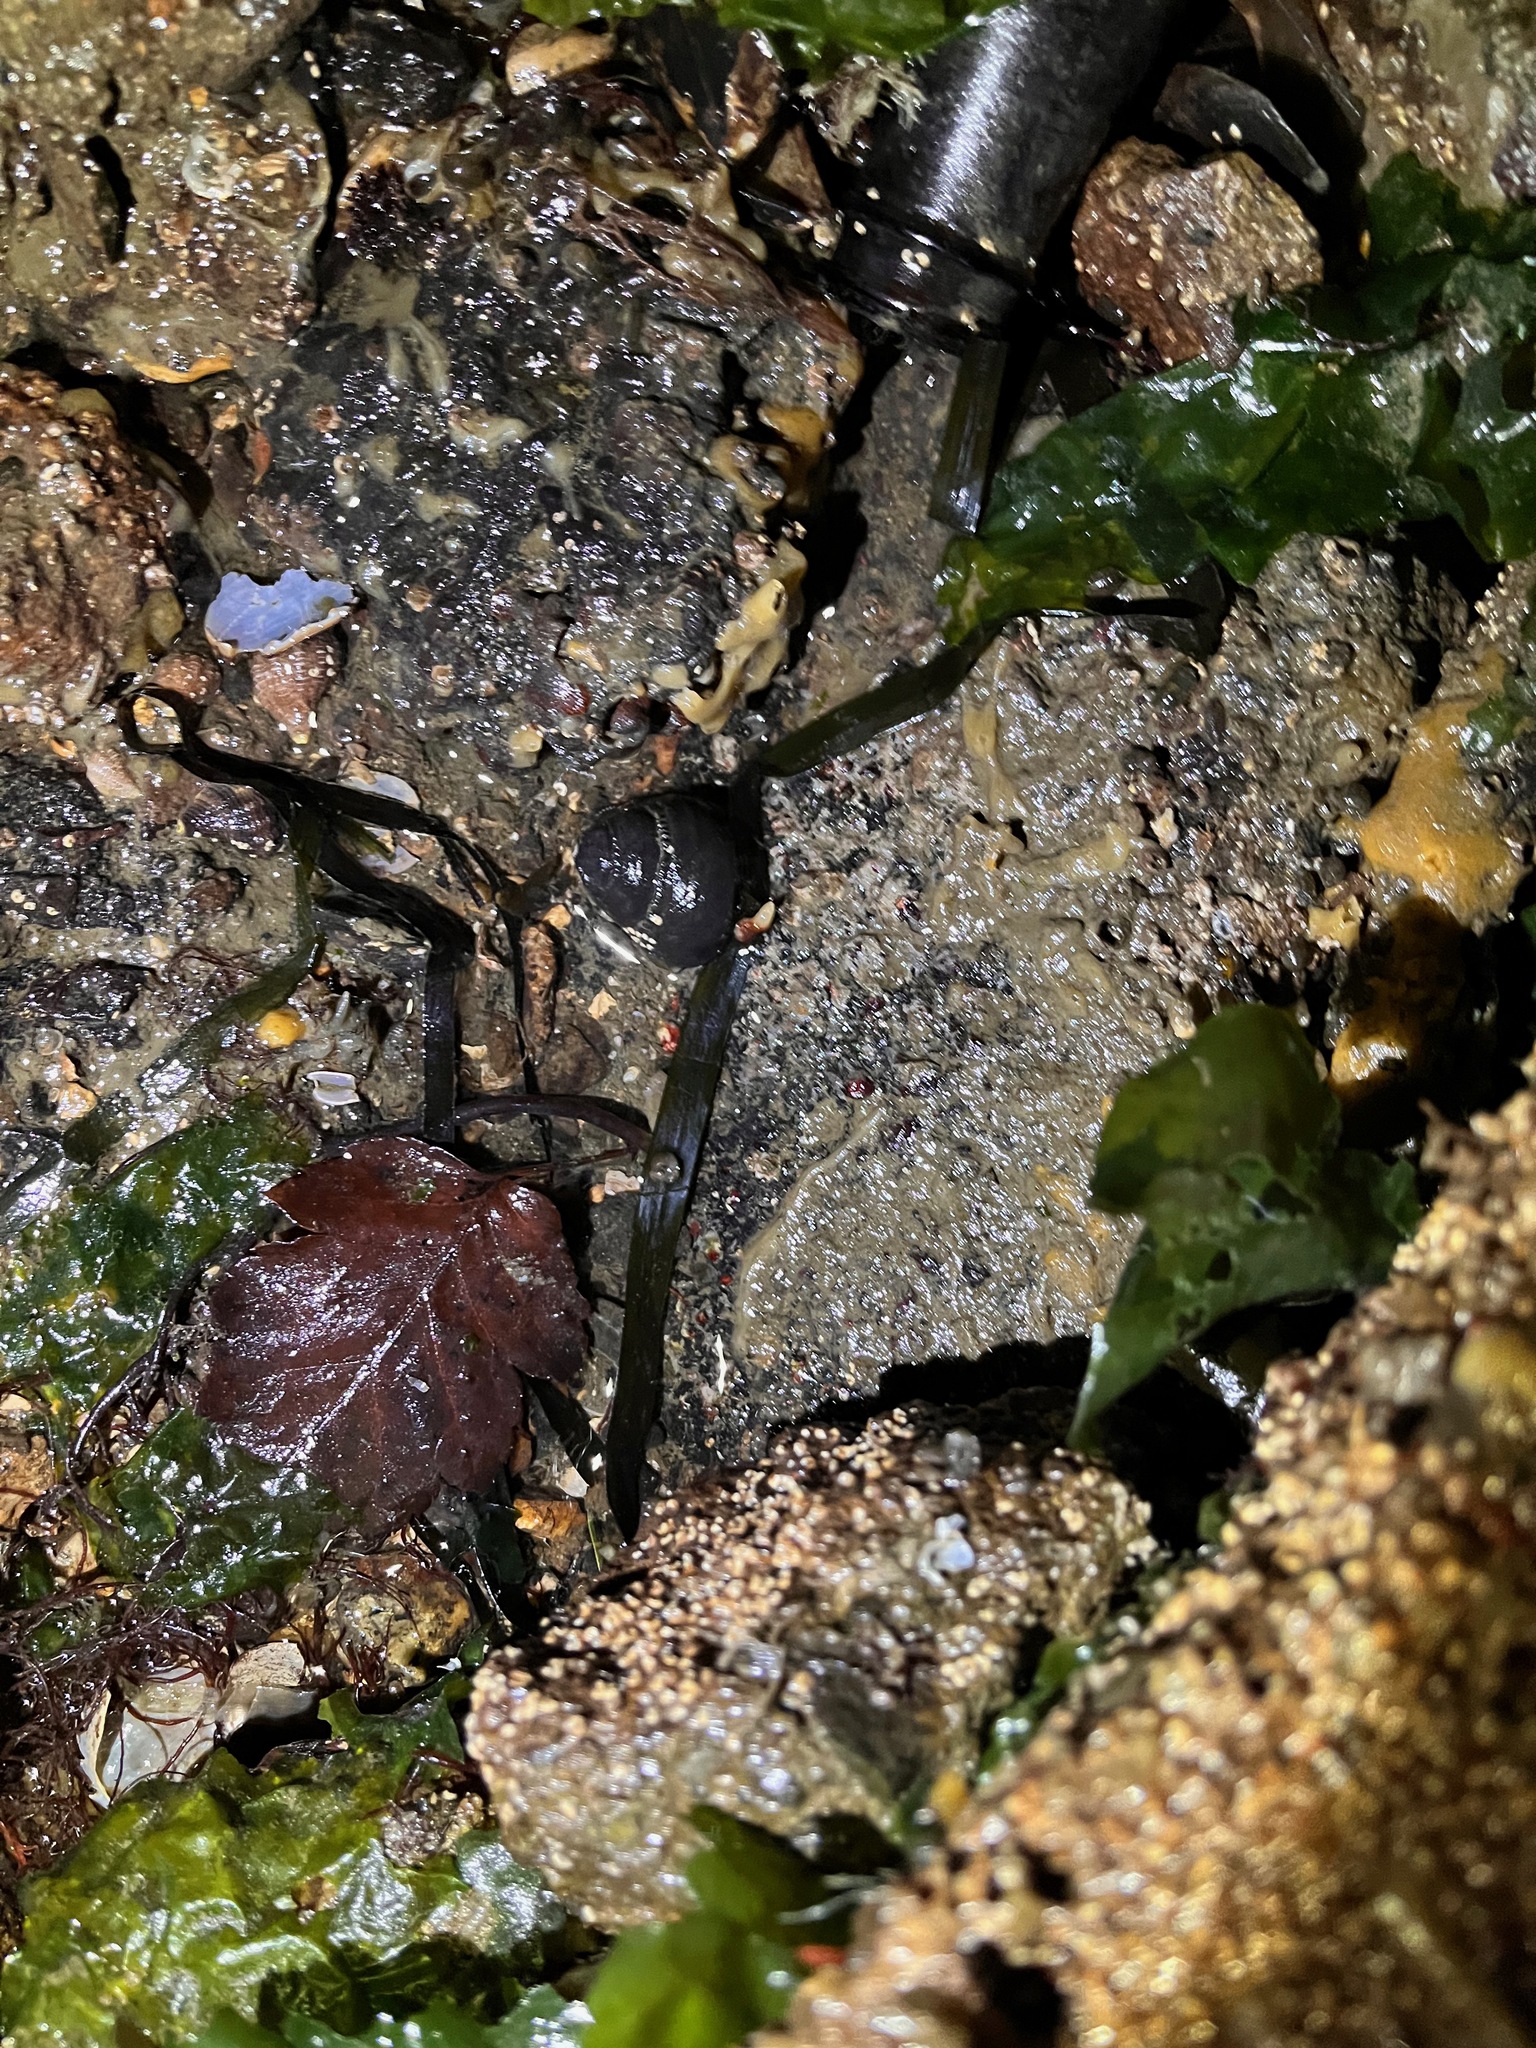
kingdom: Animalia
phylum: Mollusca
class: Gastropoda
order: Trochida
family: Tegulidae
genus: Tegula
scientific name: Tegula funebralis
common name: Black tegula
